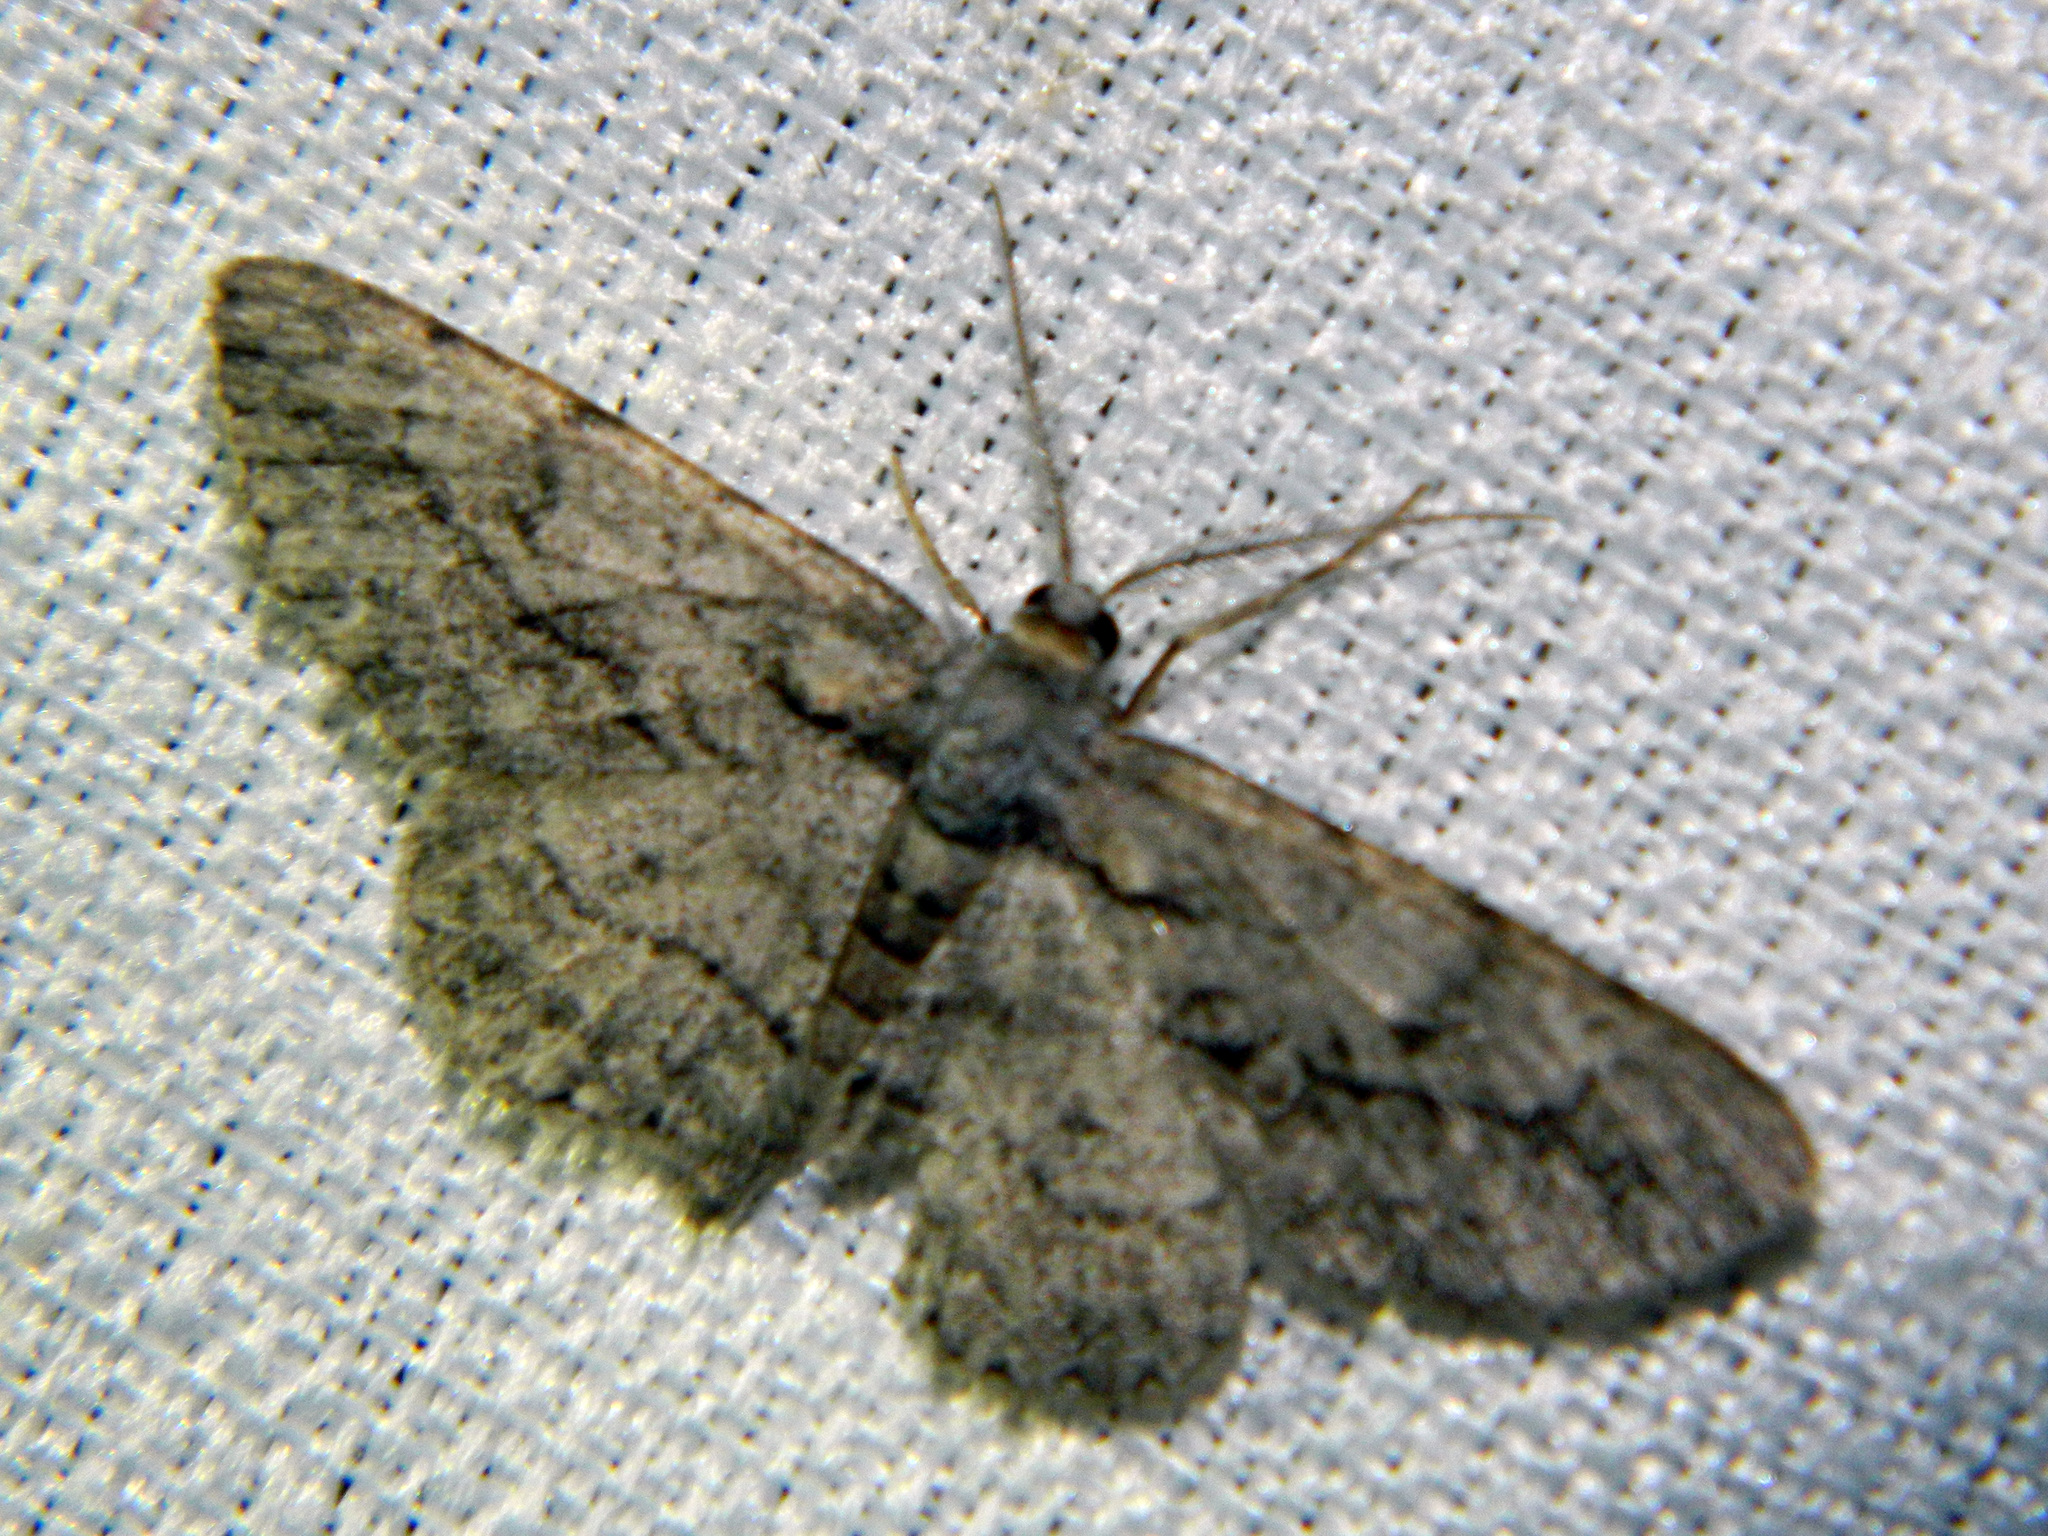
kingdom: Animalia
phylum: Arthropoda
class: Insecta
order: Lepidoptera
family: Geometridae
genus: Anavitrinella
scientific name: Anavitrinella pampinaria
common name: Common gray
